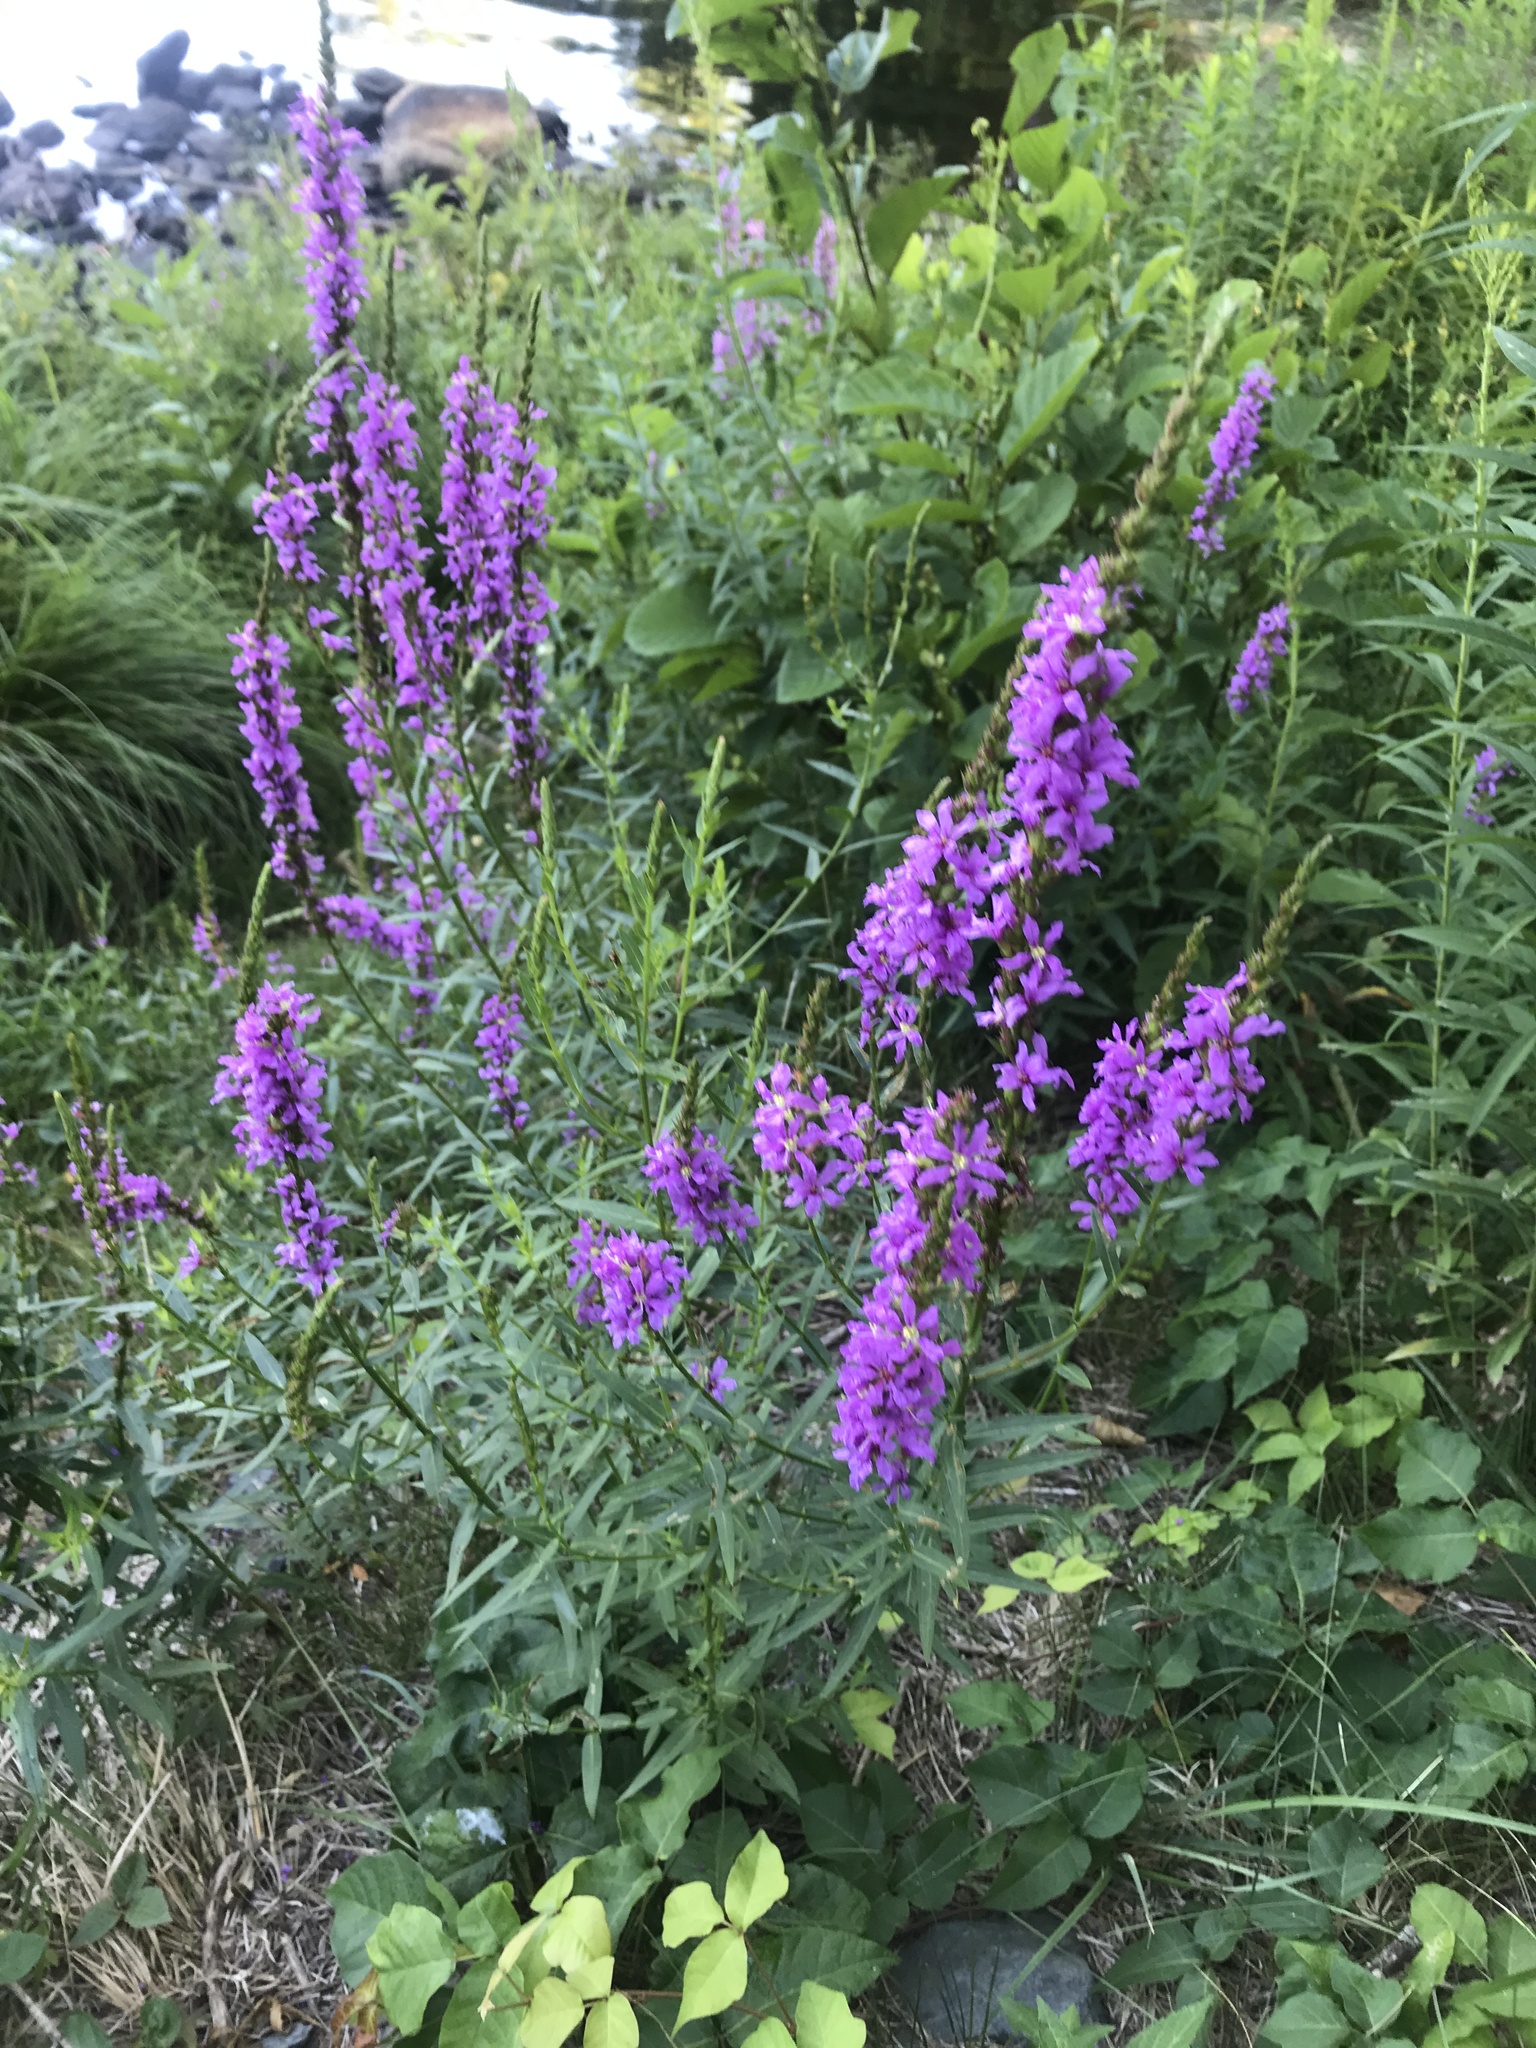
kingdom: Plantae
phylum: Tracheophyta
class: Magnoliopsida
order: Myrtales
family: Lythraceae
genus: Lythrum
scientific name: Lythrum salicaria
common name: Purple loosestrife
